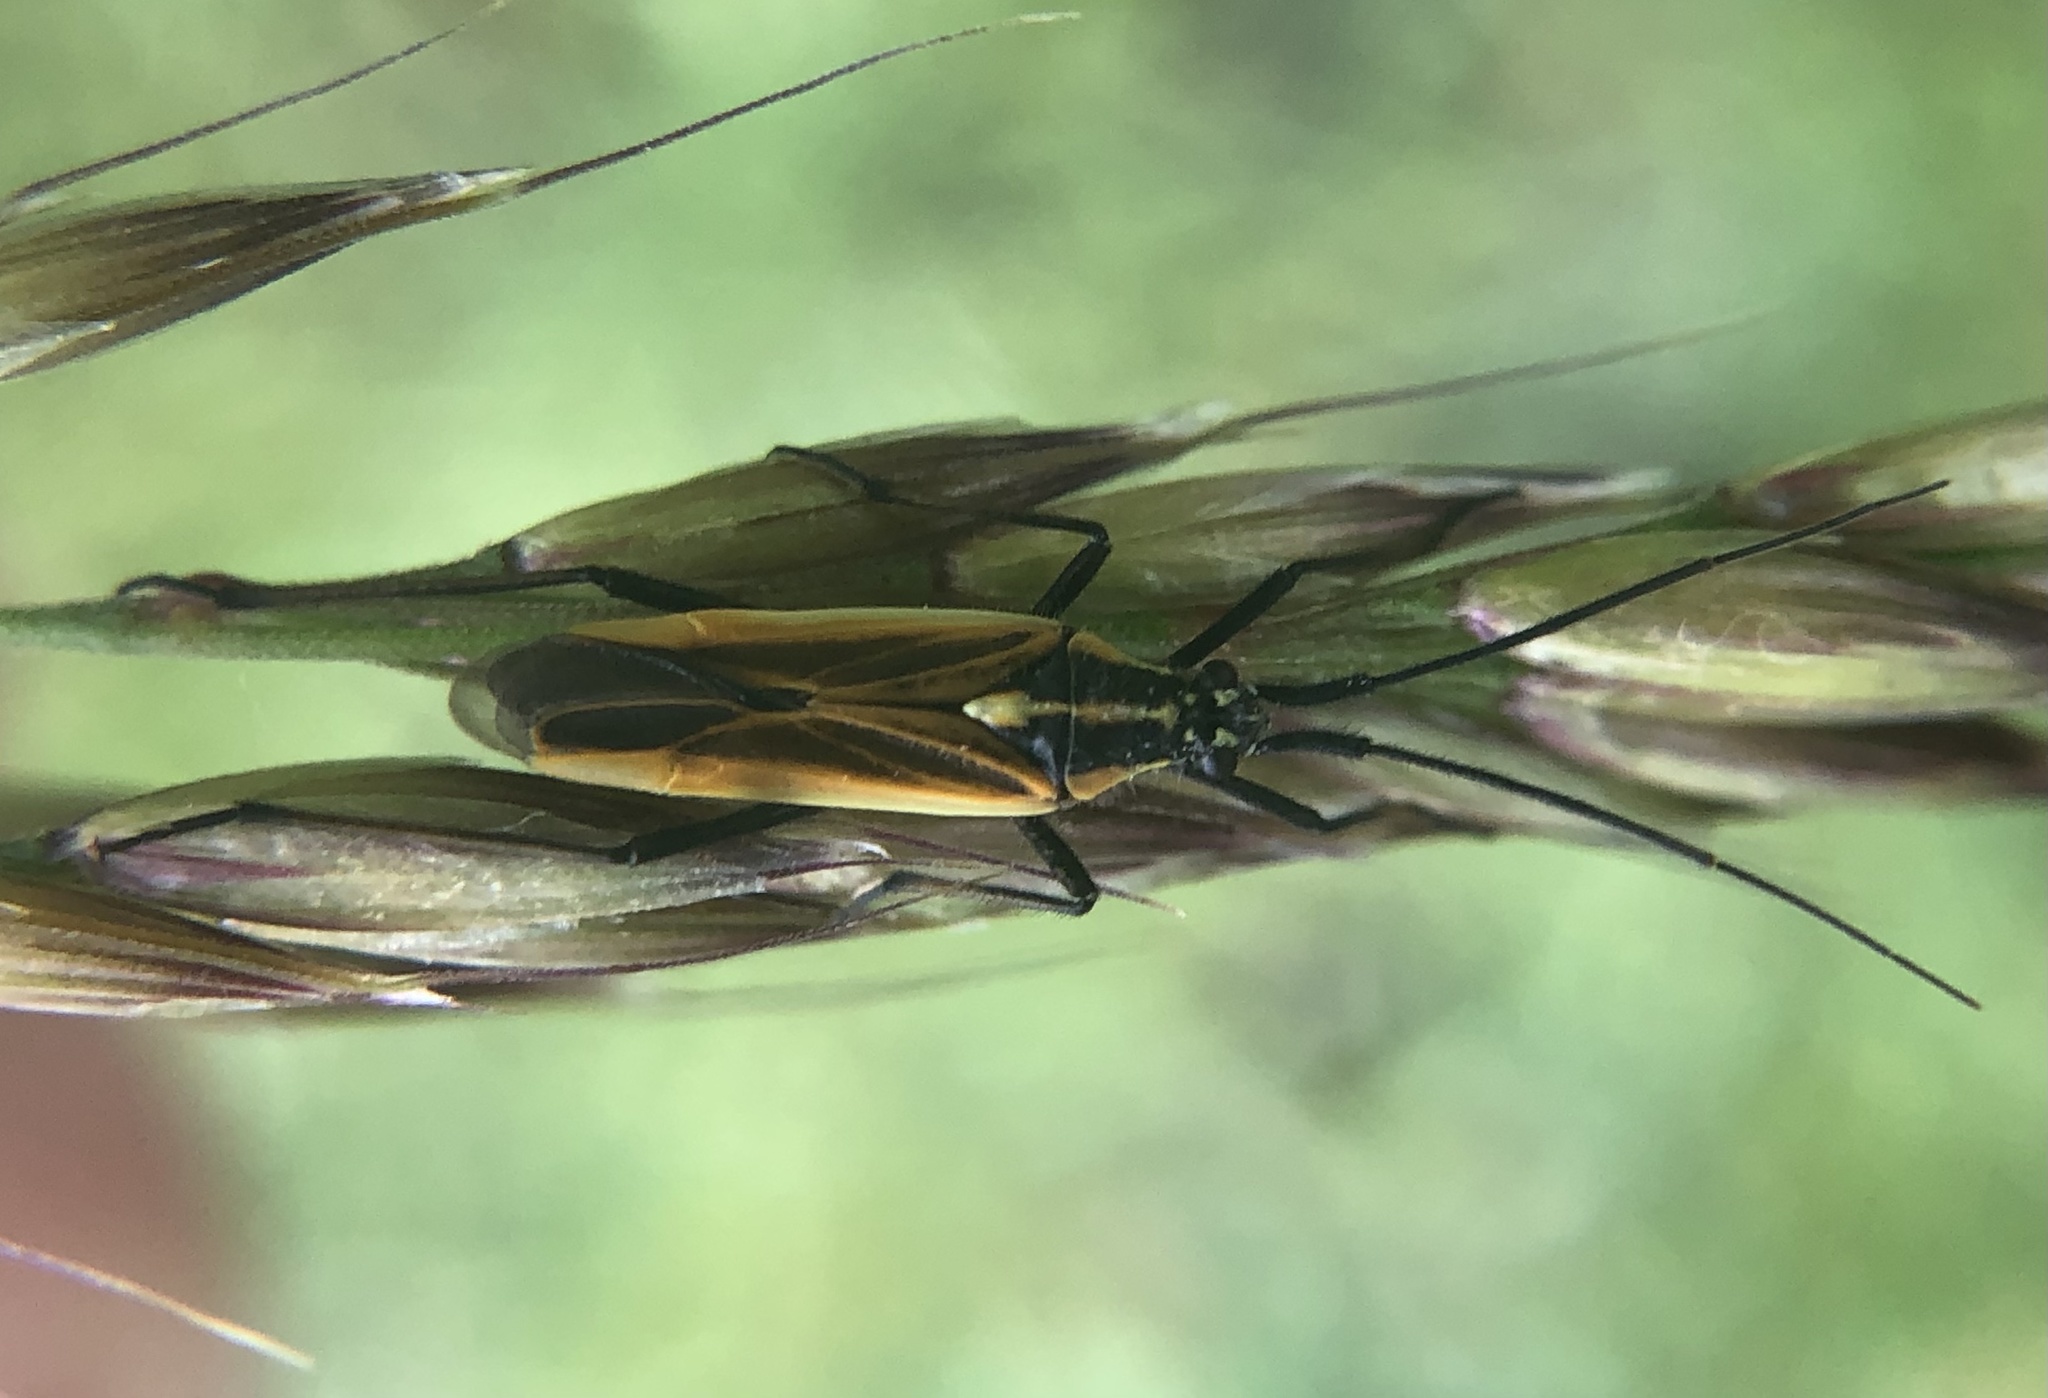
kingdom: Animalia
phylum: Arthropoda
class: Insecta
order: Hemiptera
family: Miridae
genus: Leptopterna
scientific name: Leptopterna dolabrata
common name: Meadow plant bug
